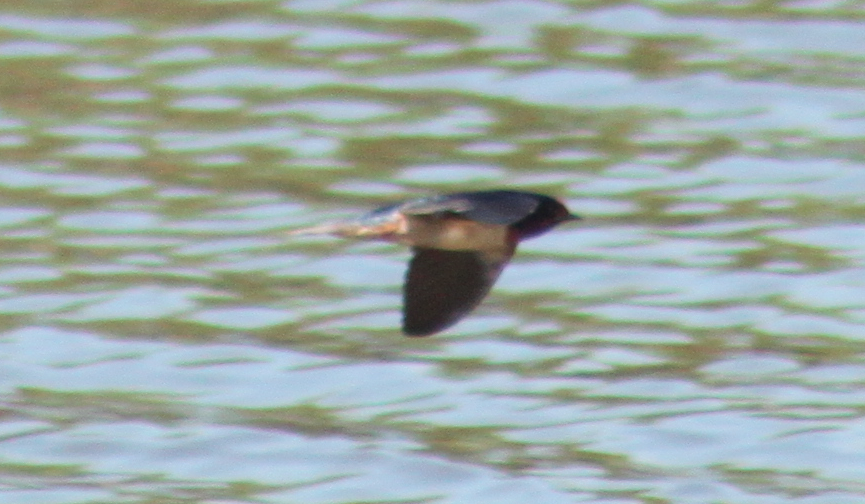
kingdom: Animalia
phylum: Chordata
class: Aves
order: Passeriformes
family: Hirundinidae
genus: Hirundo
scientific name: Hirundo rustica
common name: Barn swallow
